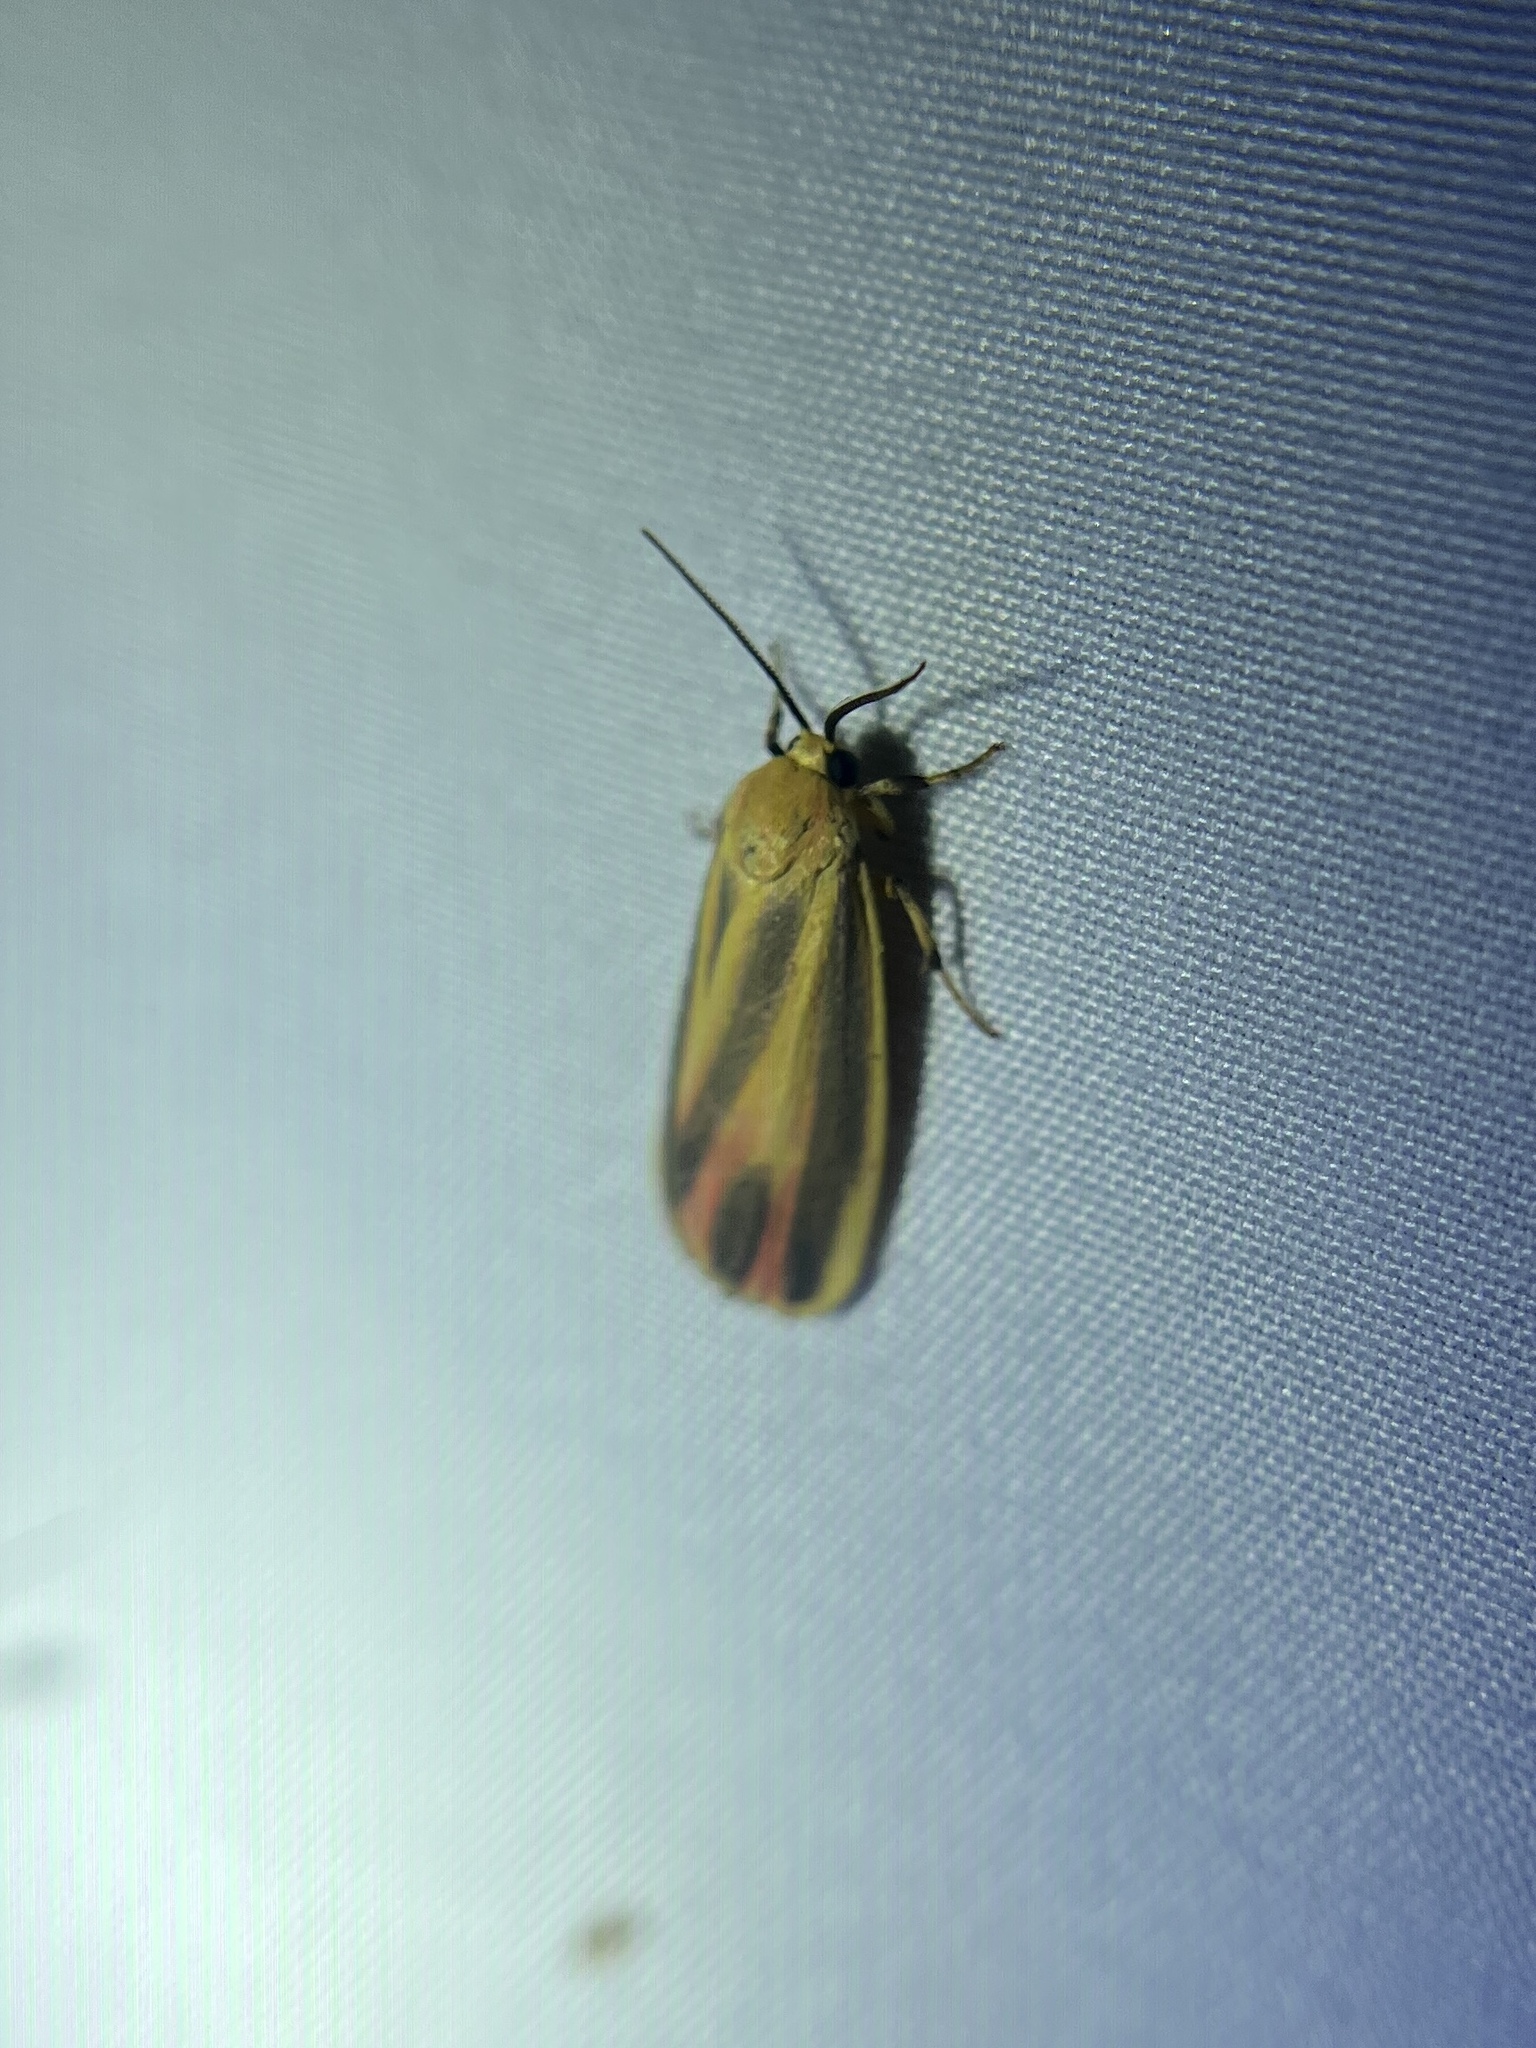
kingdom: Animalia
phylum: Arthropoda
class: Insecta
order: Lepidoptera
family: Erebidae
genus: Hypoprepia
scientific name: Hypoprepia fucosa
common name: Painted lichen moth
